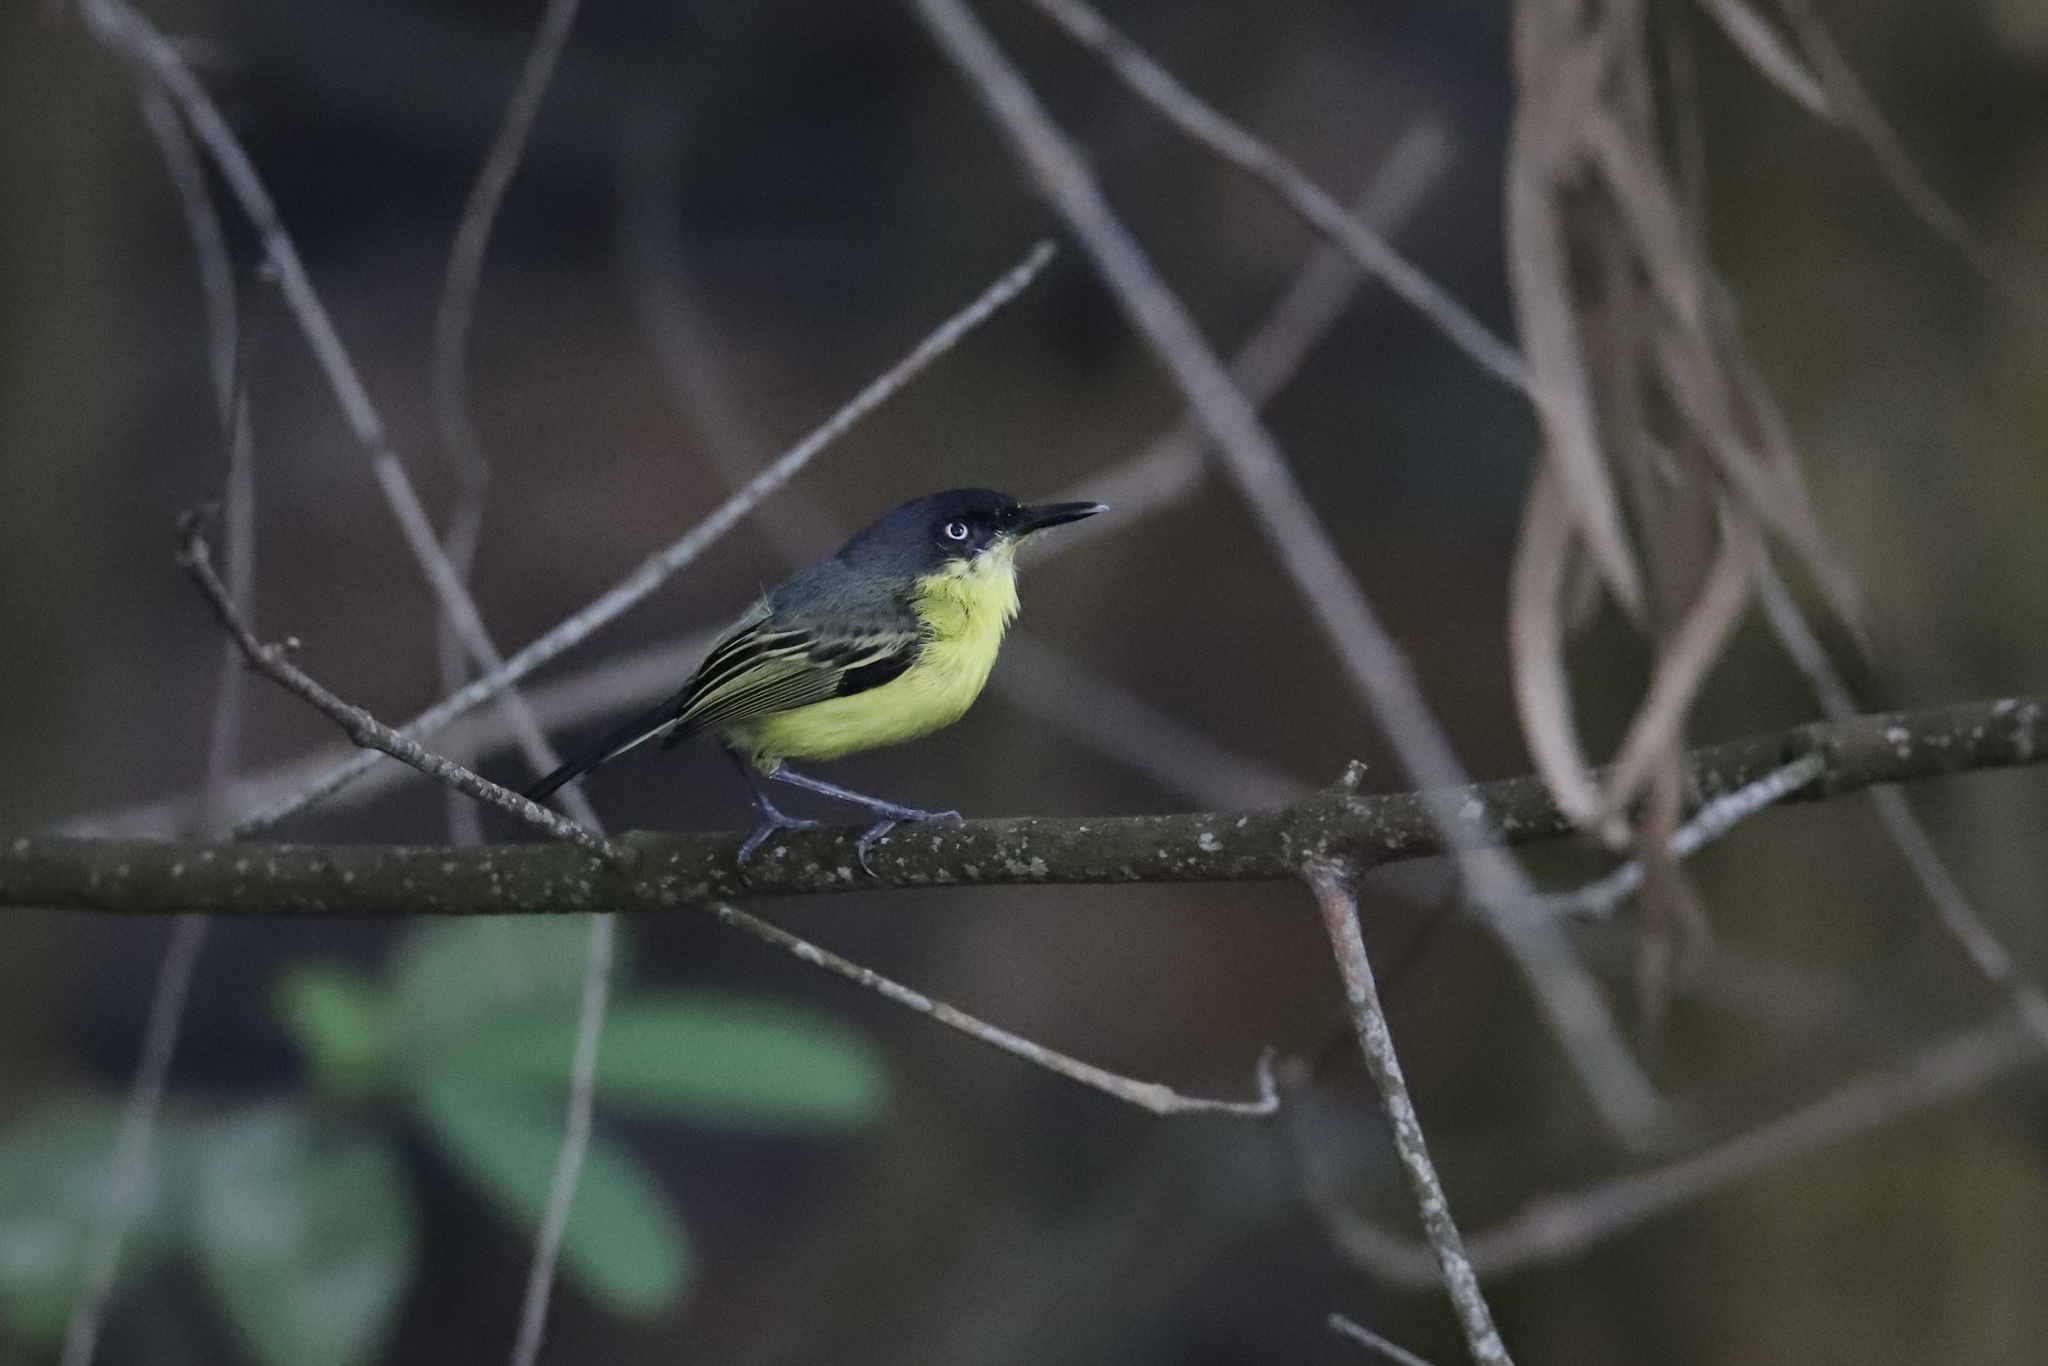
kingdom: Animalia
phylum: Chordata
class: Aves
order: Passeriformes
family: Tyrannidae
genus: Todirostrum
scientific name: Todirostrum cinereum
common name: Common tody-flycatcher
